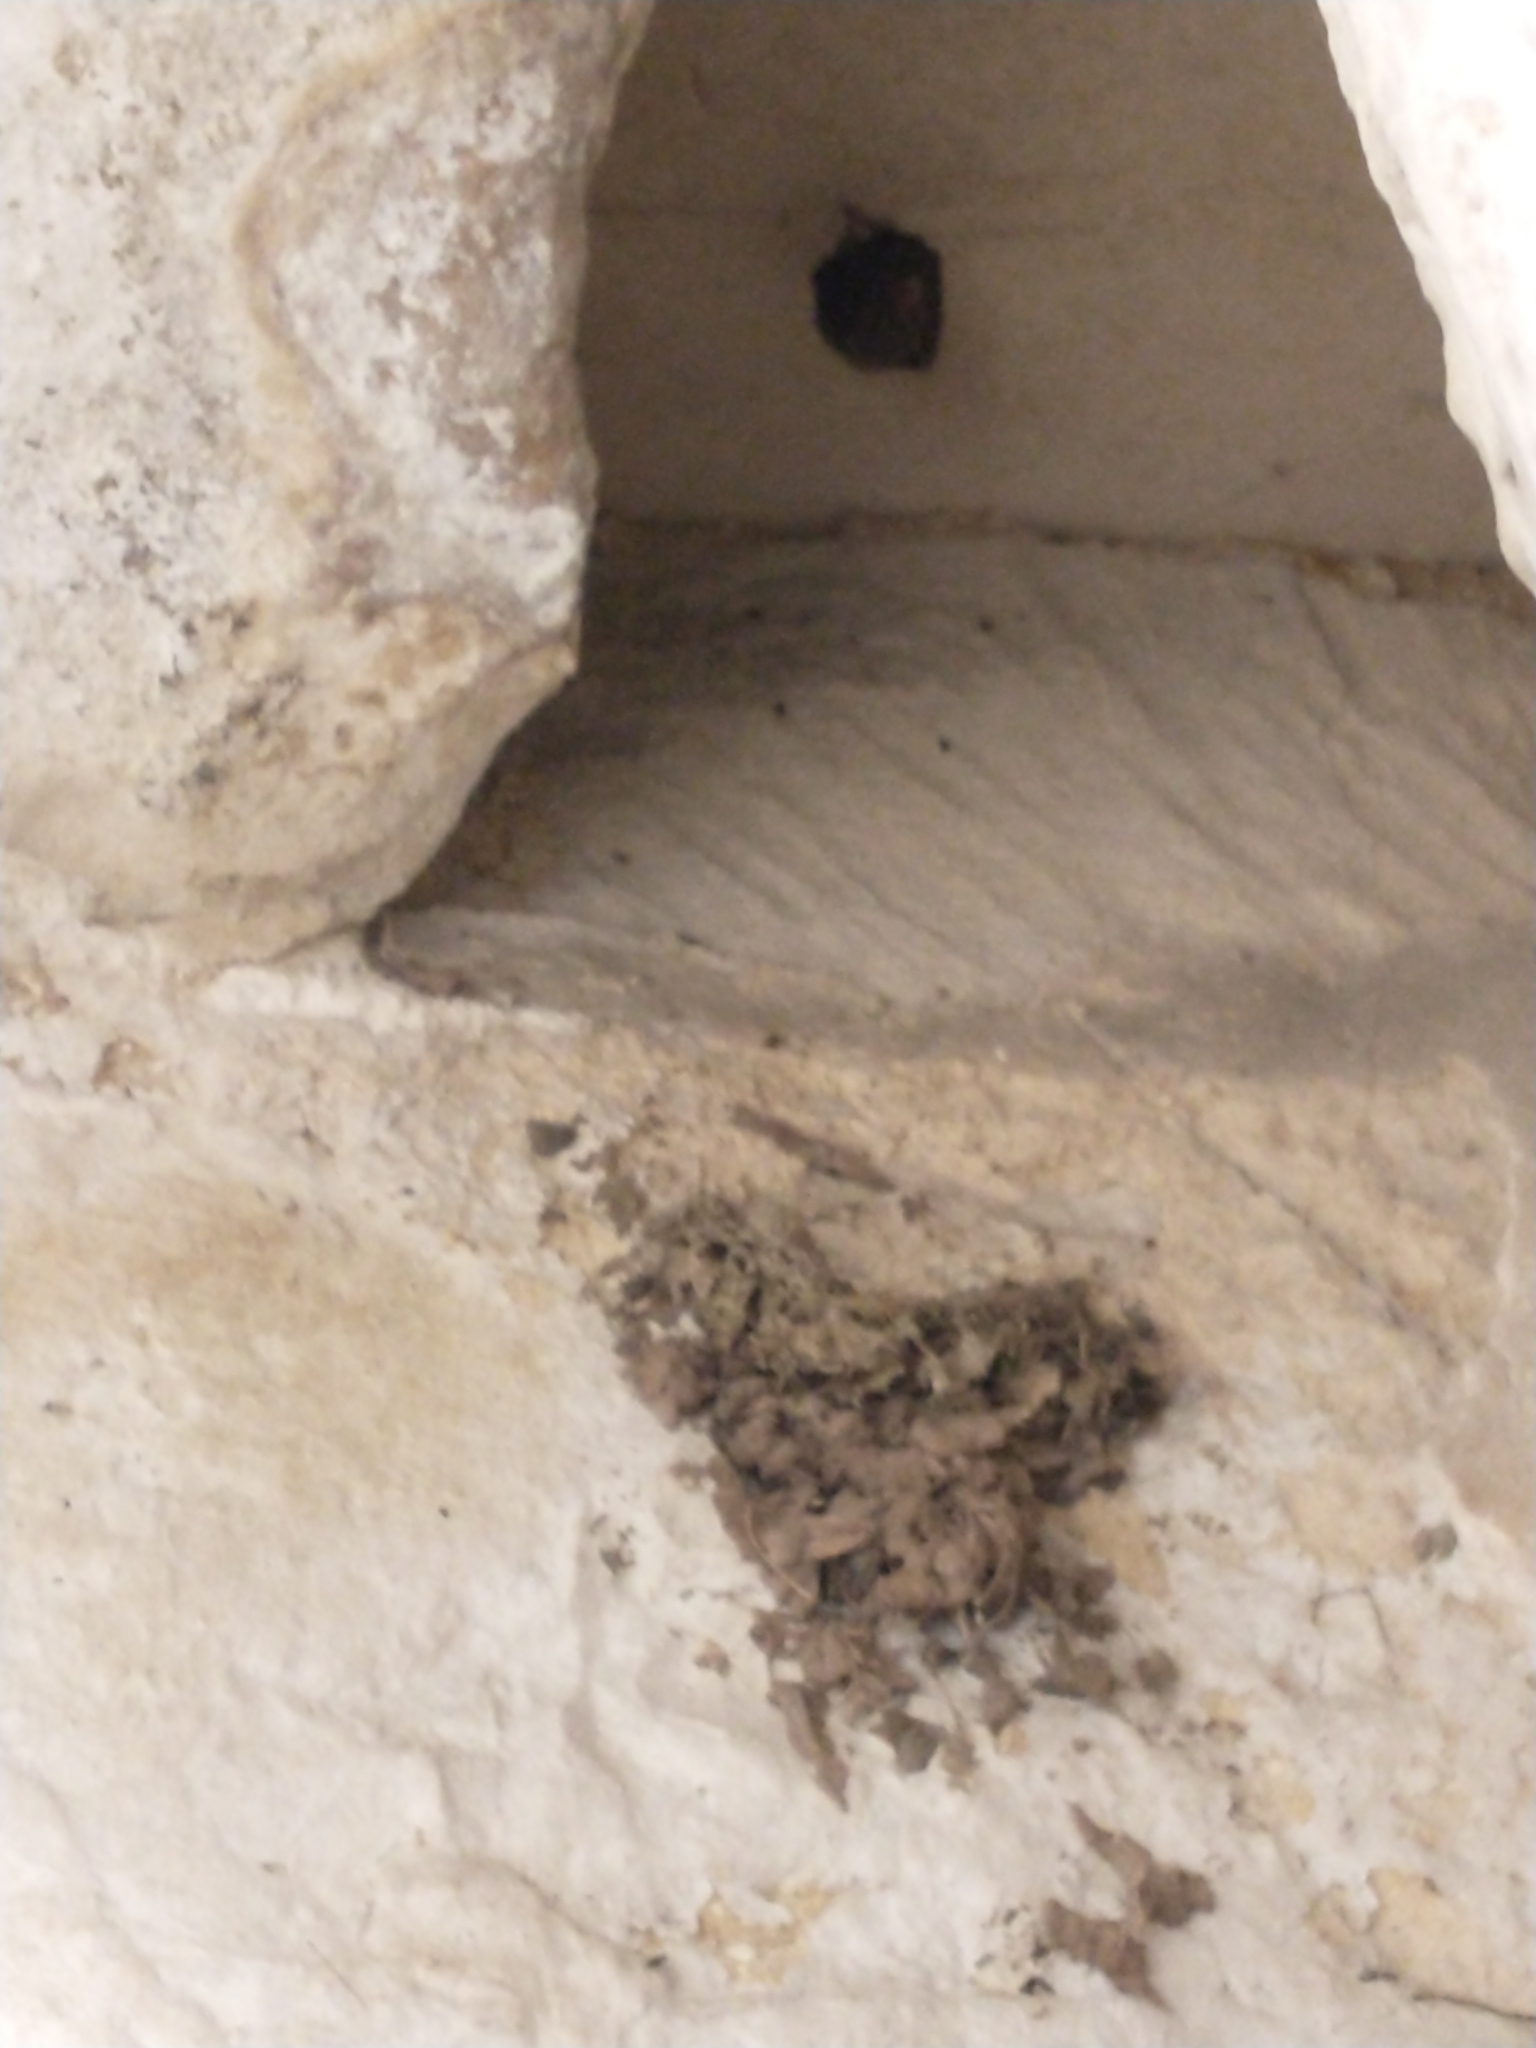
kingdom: Animalia
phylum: Chordata
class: Mammalia
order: Chiroptera
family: Rhinolophidae
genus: Rhinolophus
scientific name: Rhinolophus hipposideros
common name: Lesser horseshoe bat
